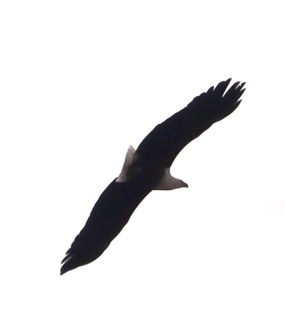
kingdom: Animalia
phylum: Chordata
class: Aves
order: Accipitriformes
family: Accipitridae
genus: Haliaeetus
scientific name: Haliaeetus vocifer
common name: African fish eagle
